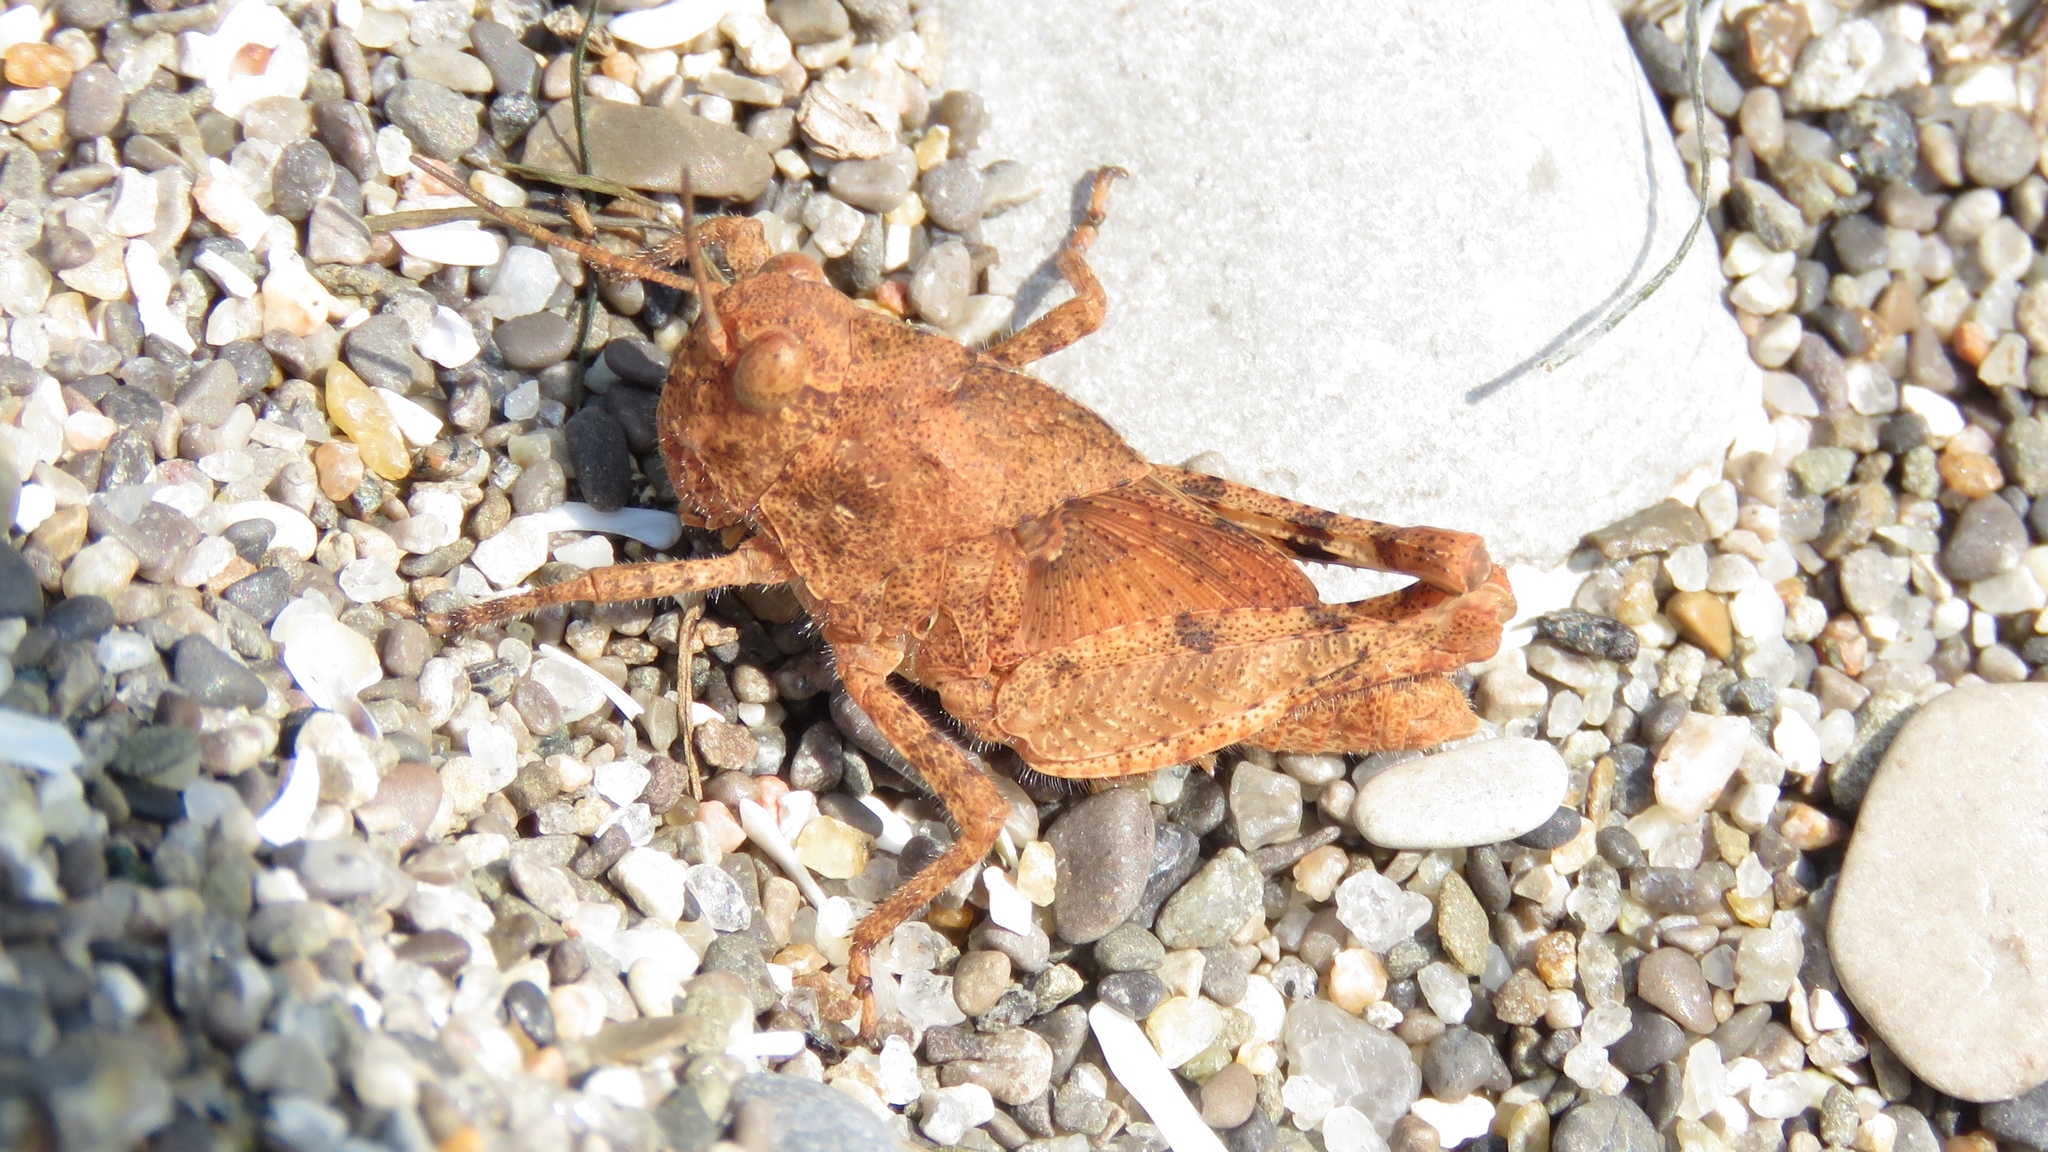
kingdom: Animalia
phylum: Arthropoda
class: Insecta
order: Orthoptera
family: Acrididae
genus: Dissosteira
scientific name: Dissosteira carolina
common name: Carolina grasshopper
